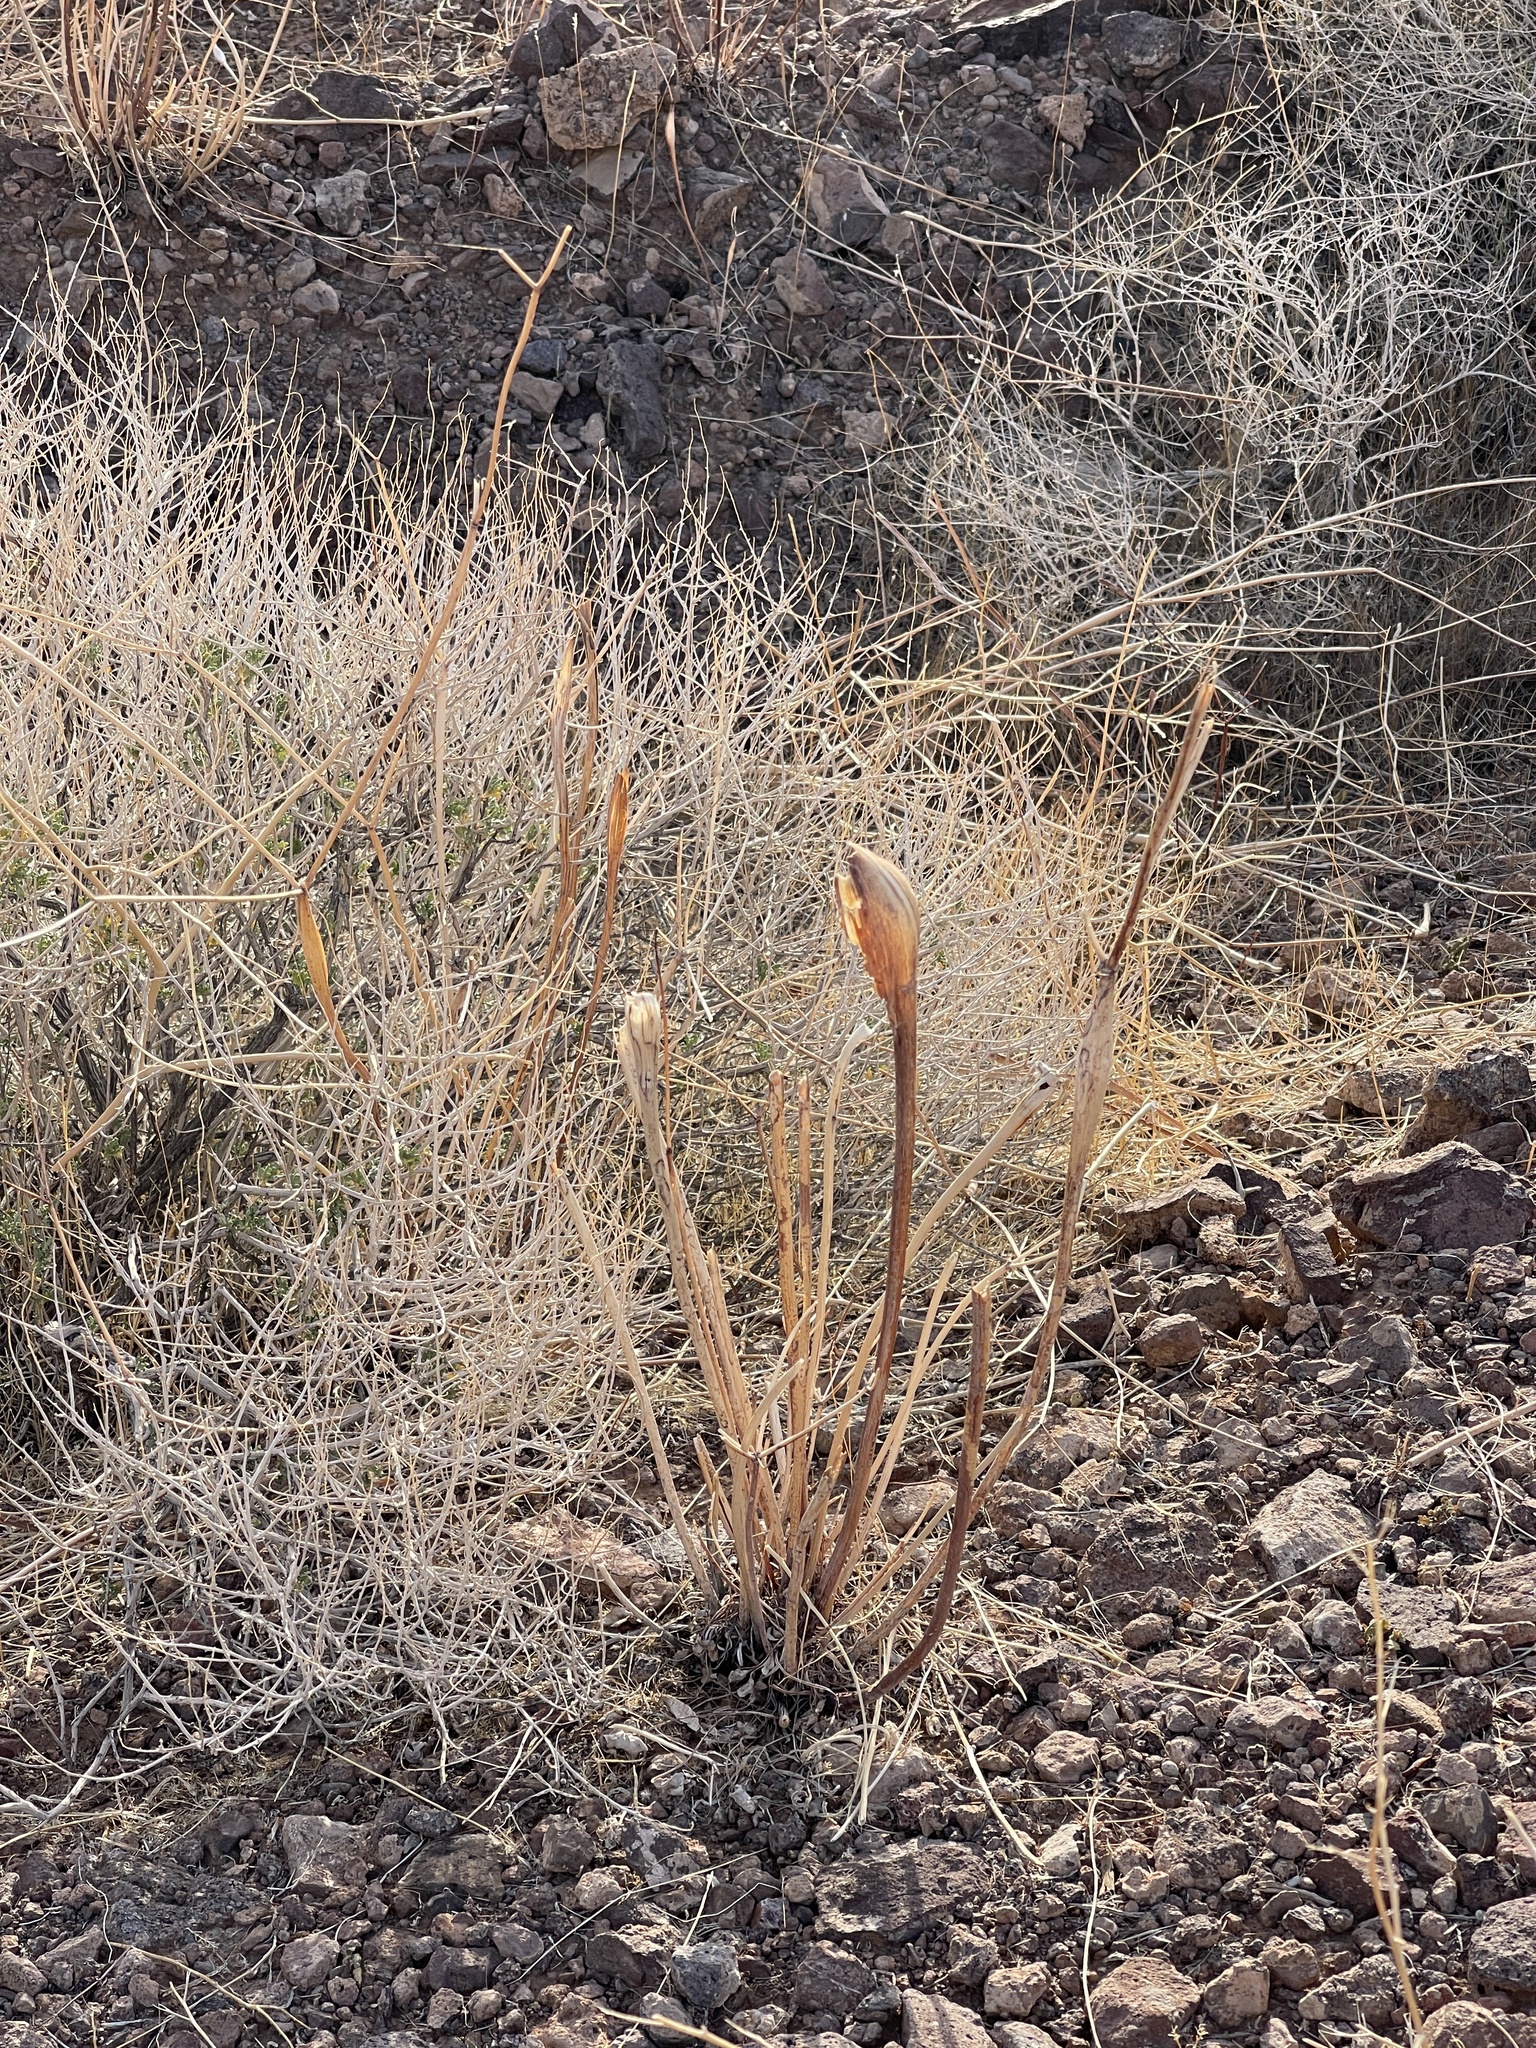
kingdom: Plantae
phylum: Tracheophyta
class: Magnoliopsida
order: Caryophyllales
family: Polygonaceae
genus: Eriogonum
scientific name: Eriogonum inflatum
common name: Desert trumpet
